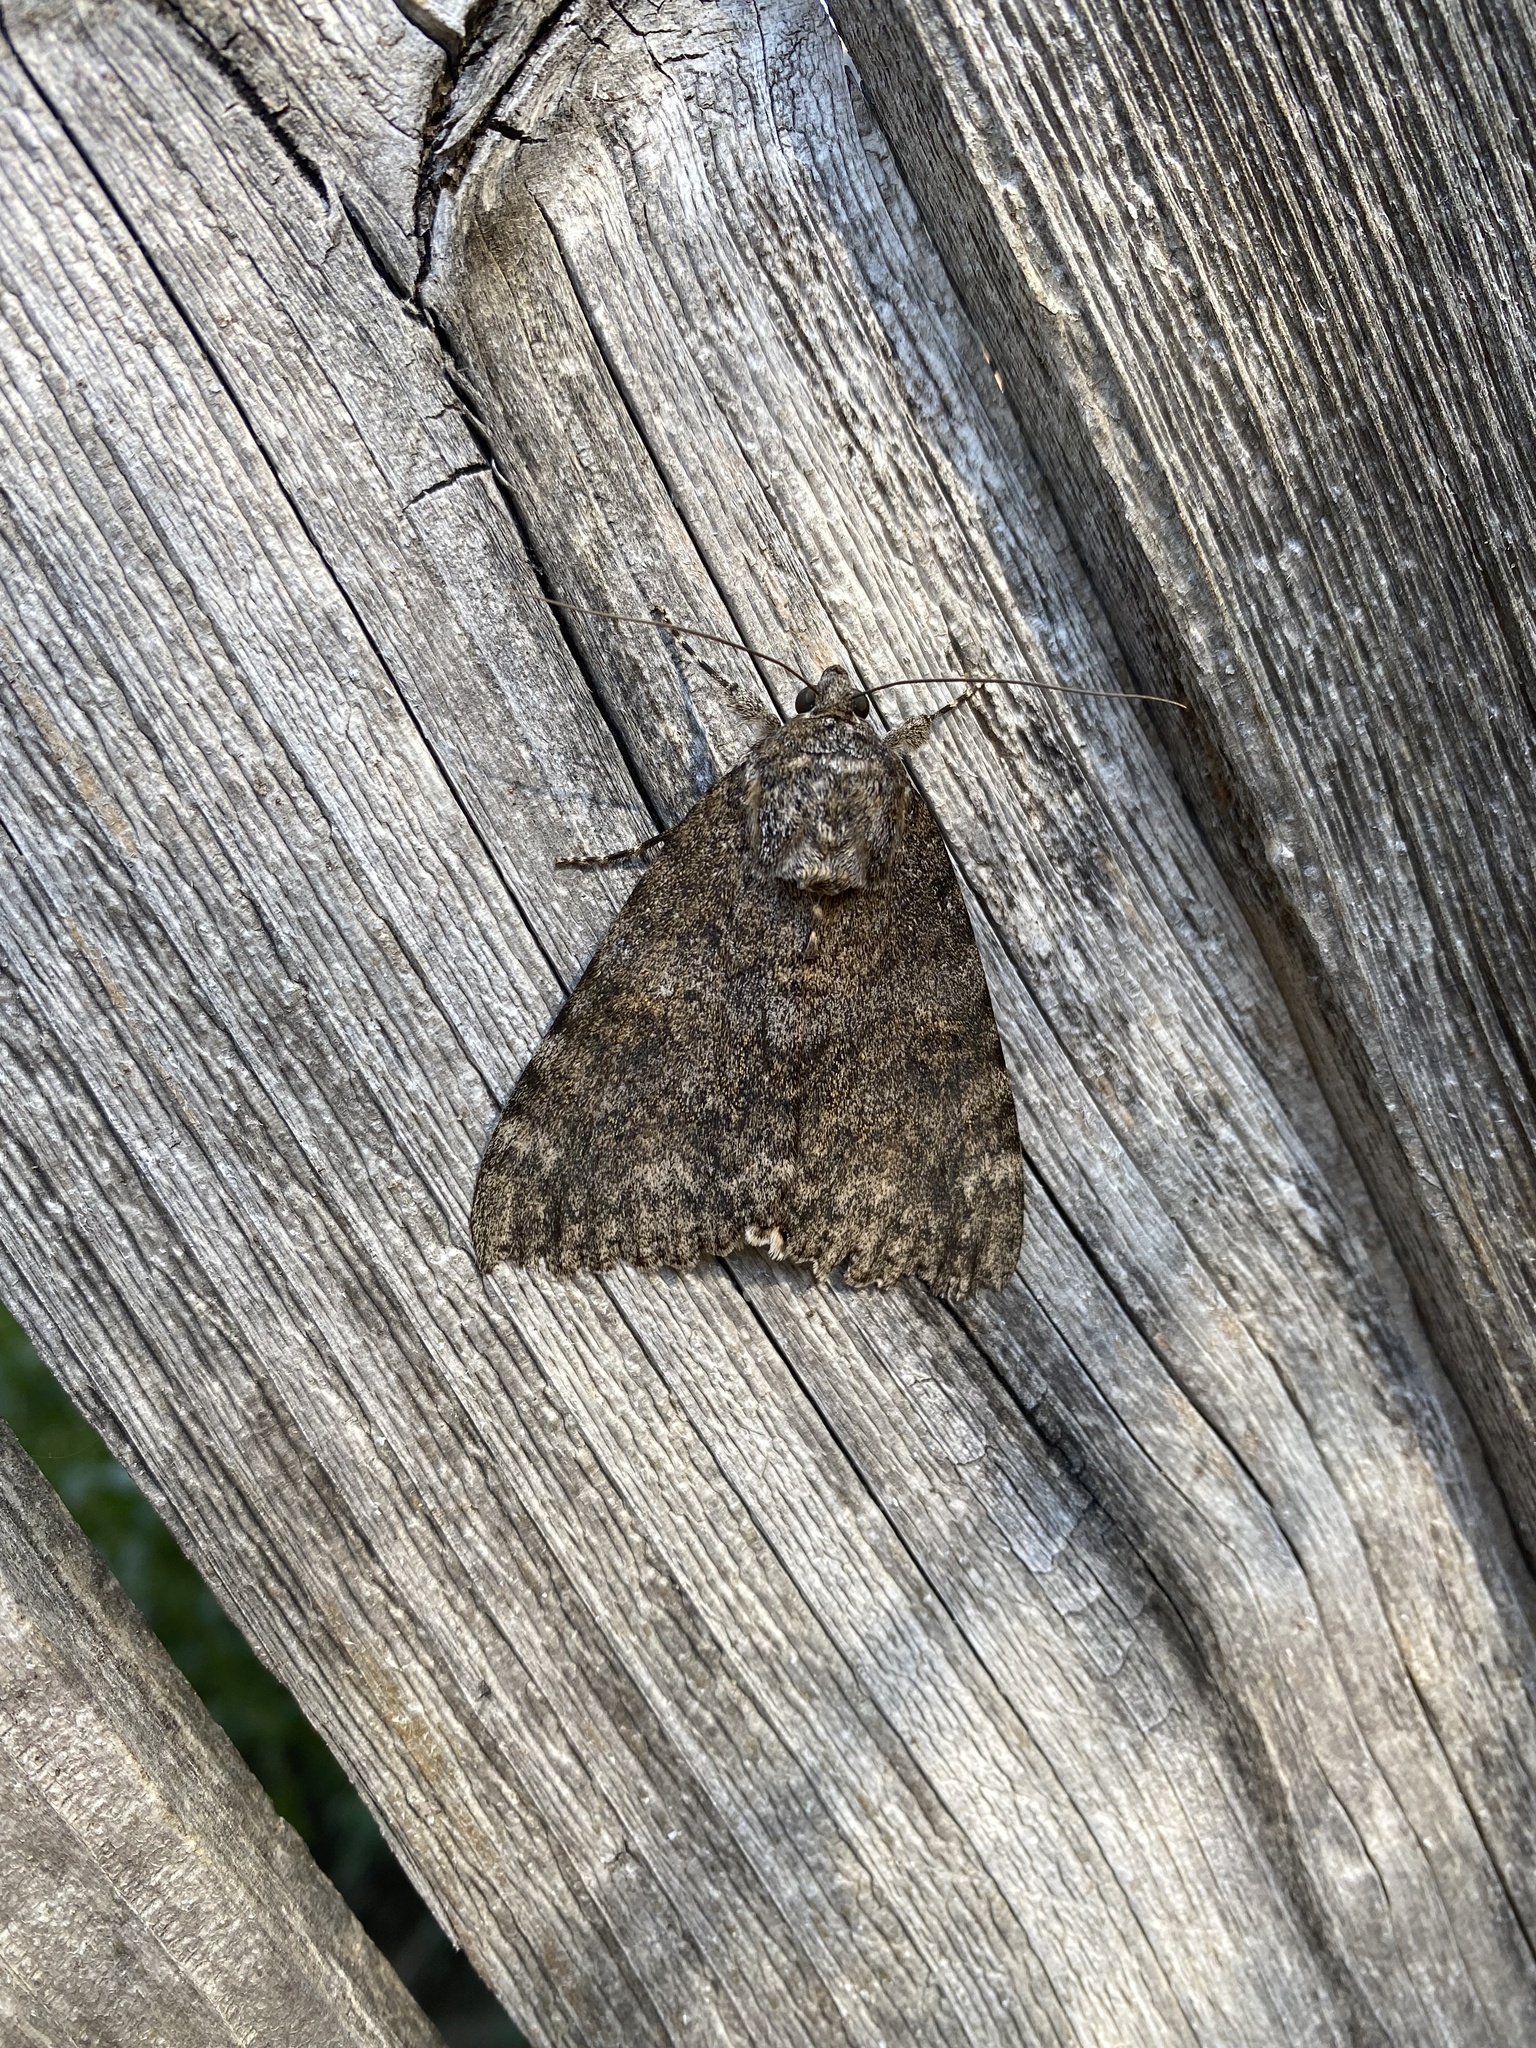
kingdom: Animalia
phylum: Arthropoda
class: Insecta
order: Lepidoptera
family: Erebidae
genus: Catocala
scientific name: Catocala junctura
